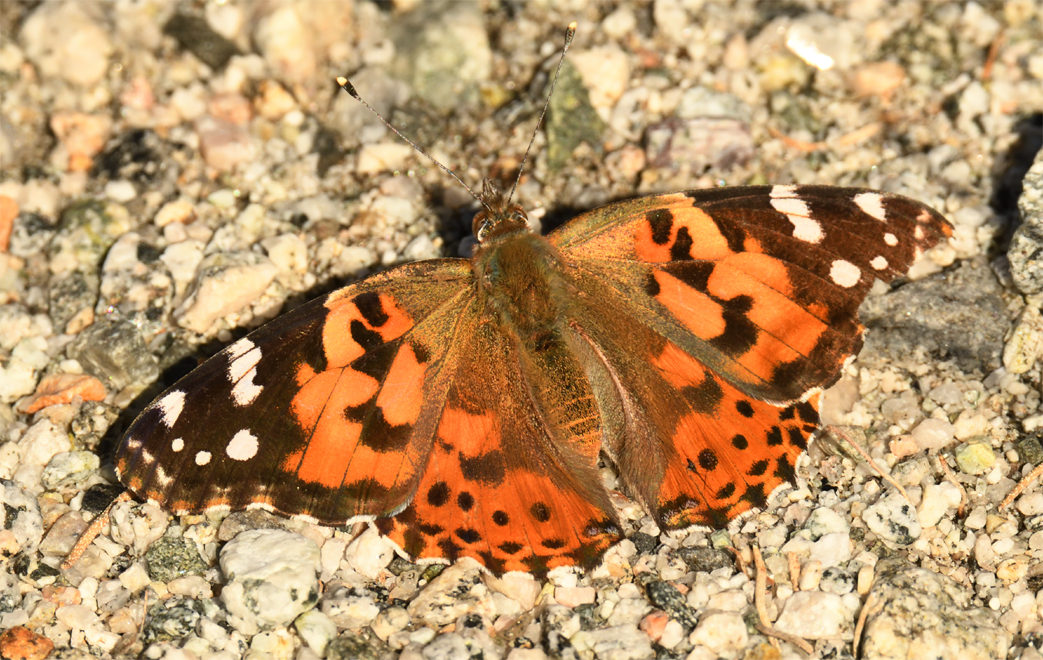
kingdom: Animalia
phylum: Arthropoda
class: Insecta
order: Lepidoptera
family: Nymphalidae
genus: Vanessa
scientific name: Vanessa cardui
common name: Painted lady
